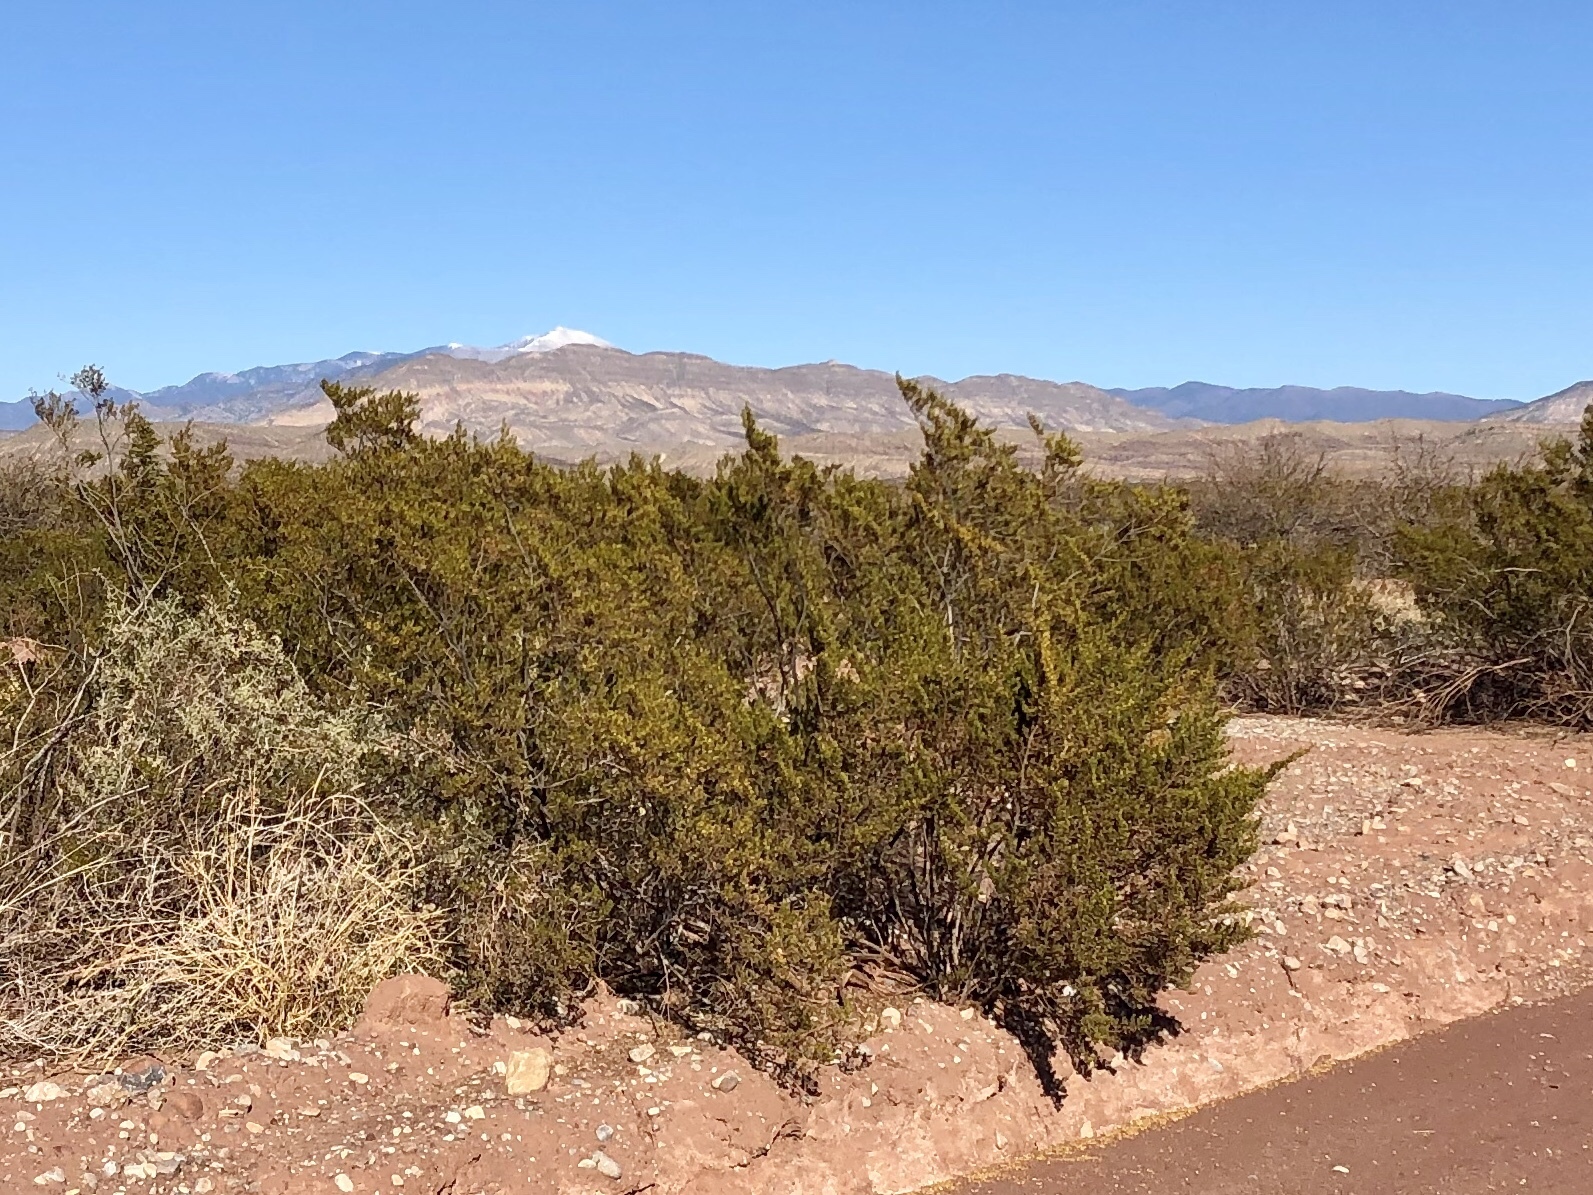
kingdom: Plantae
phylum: Tracheophyta
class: Magnoliopsida
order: Zygophyllales
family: Zygophyllaceae
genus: Larrea
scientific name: Larrea tridentata
